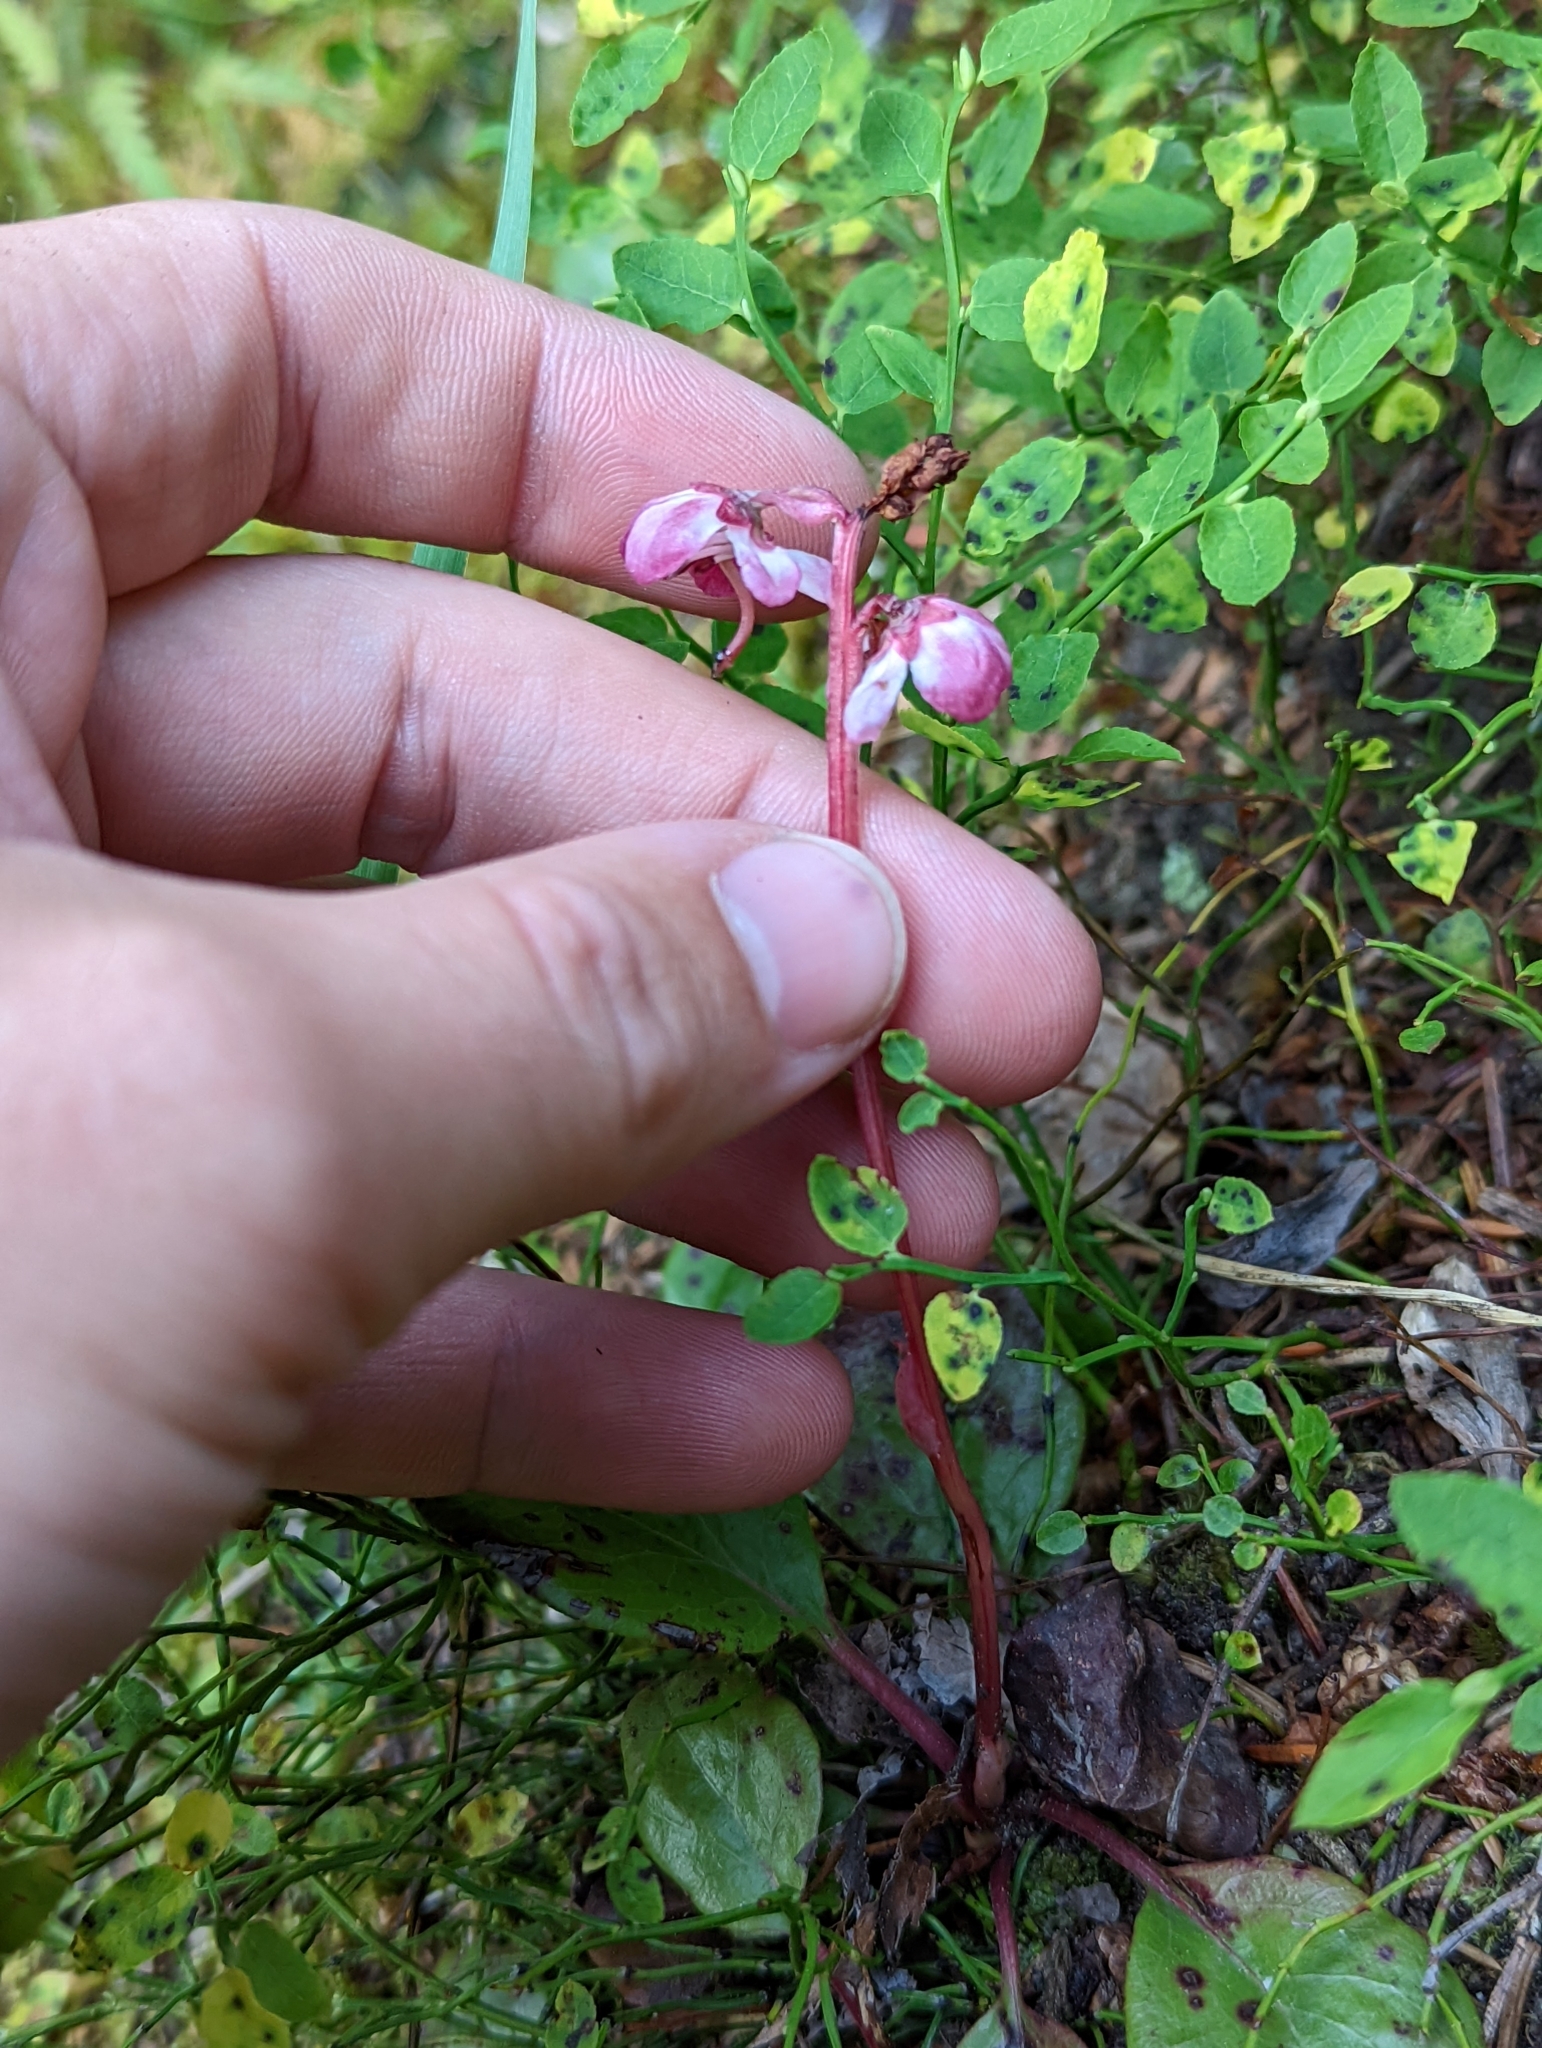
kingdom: Plantae
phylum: Tracheophyta
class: Magnoliopsida
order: Ericales
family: Ericaceae
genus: Pyrola
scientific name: Pyrola asarifolia
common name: Bog wintergreen
